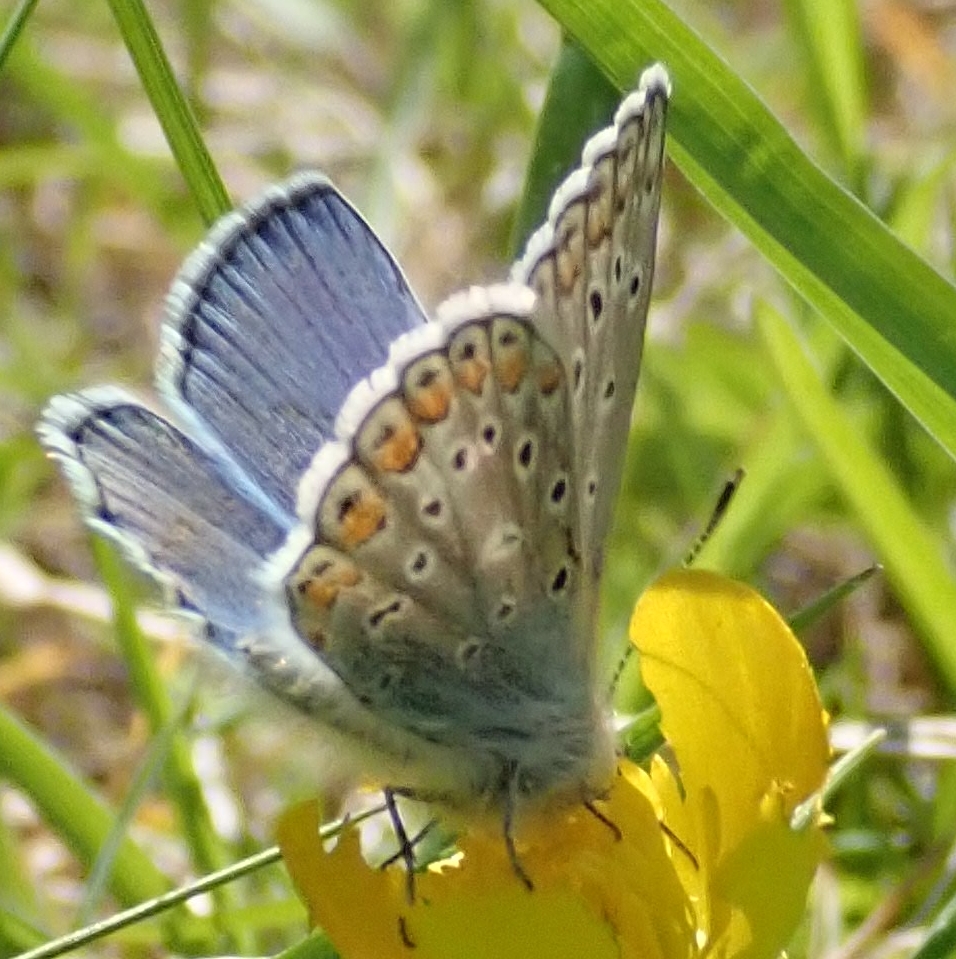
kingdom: Animalia
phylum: Arthropoda
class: Insecta
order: Lepidoptera
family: Lycaenidae
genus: Polyommatus
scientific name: Polyommatus icarus
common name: Common blue
